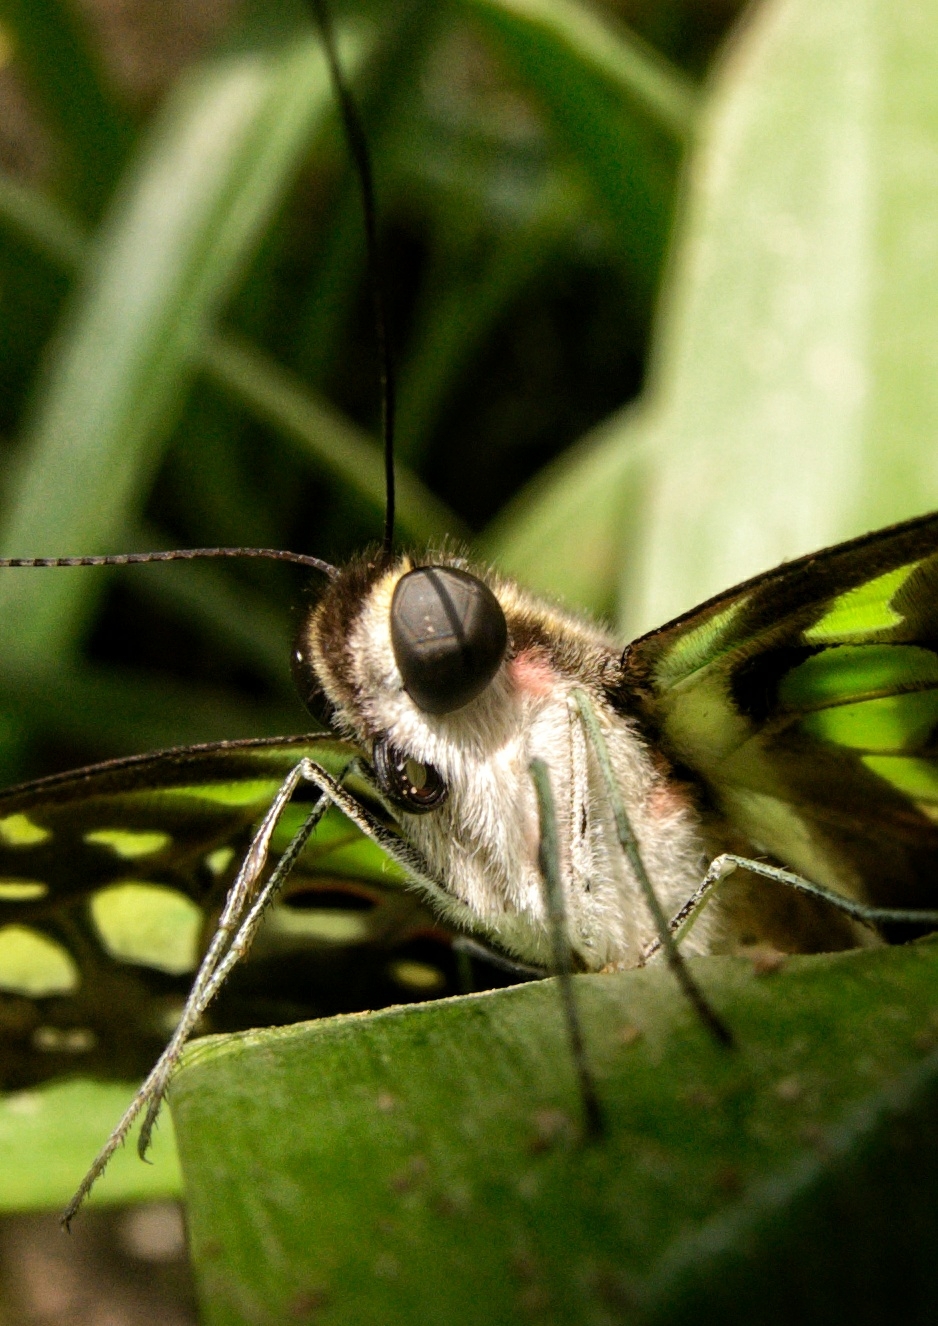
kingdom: Animalia
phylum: Arthropoda
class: Insecta
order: Lepidoptera
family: Papilionidae
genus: Graphium
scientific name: Graphium agamemnon
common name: Tailed jay
